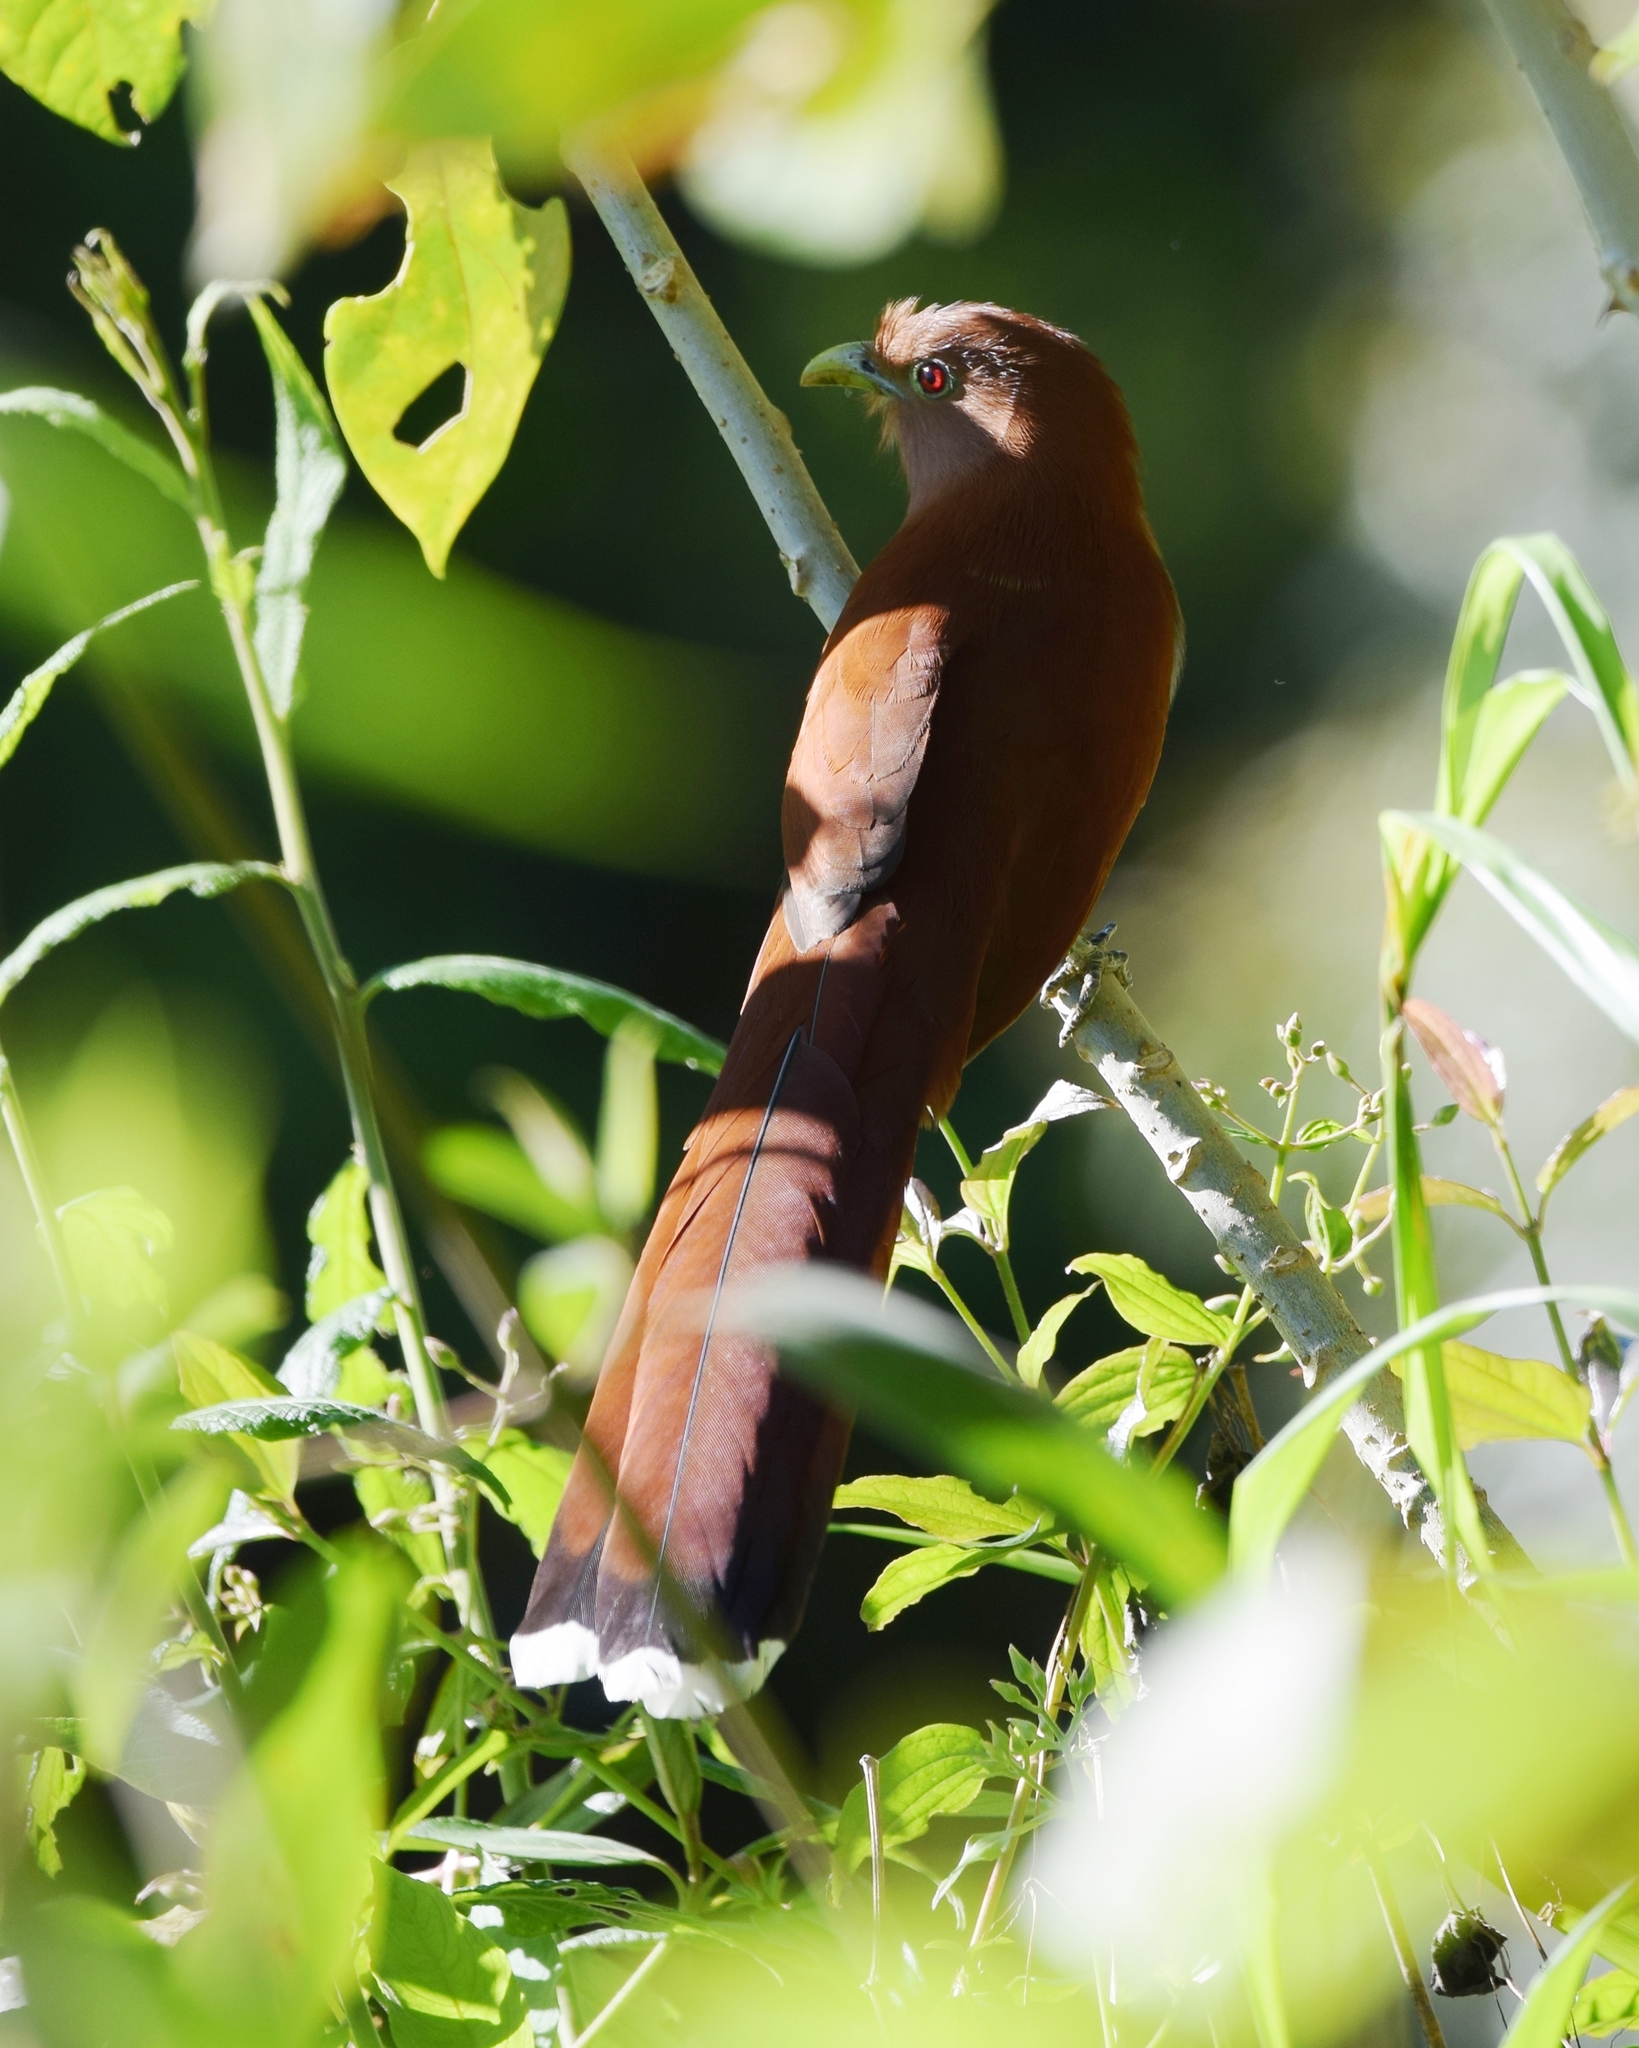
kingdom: Animalia
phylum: Chordata
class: Aves
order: Cuculiformes
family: Cuculidae
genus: Piaya
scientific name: Piaya cayana
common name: Squirrel cuckoo
